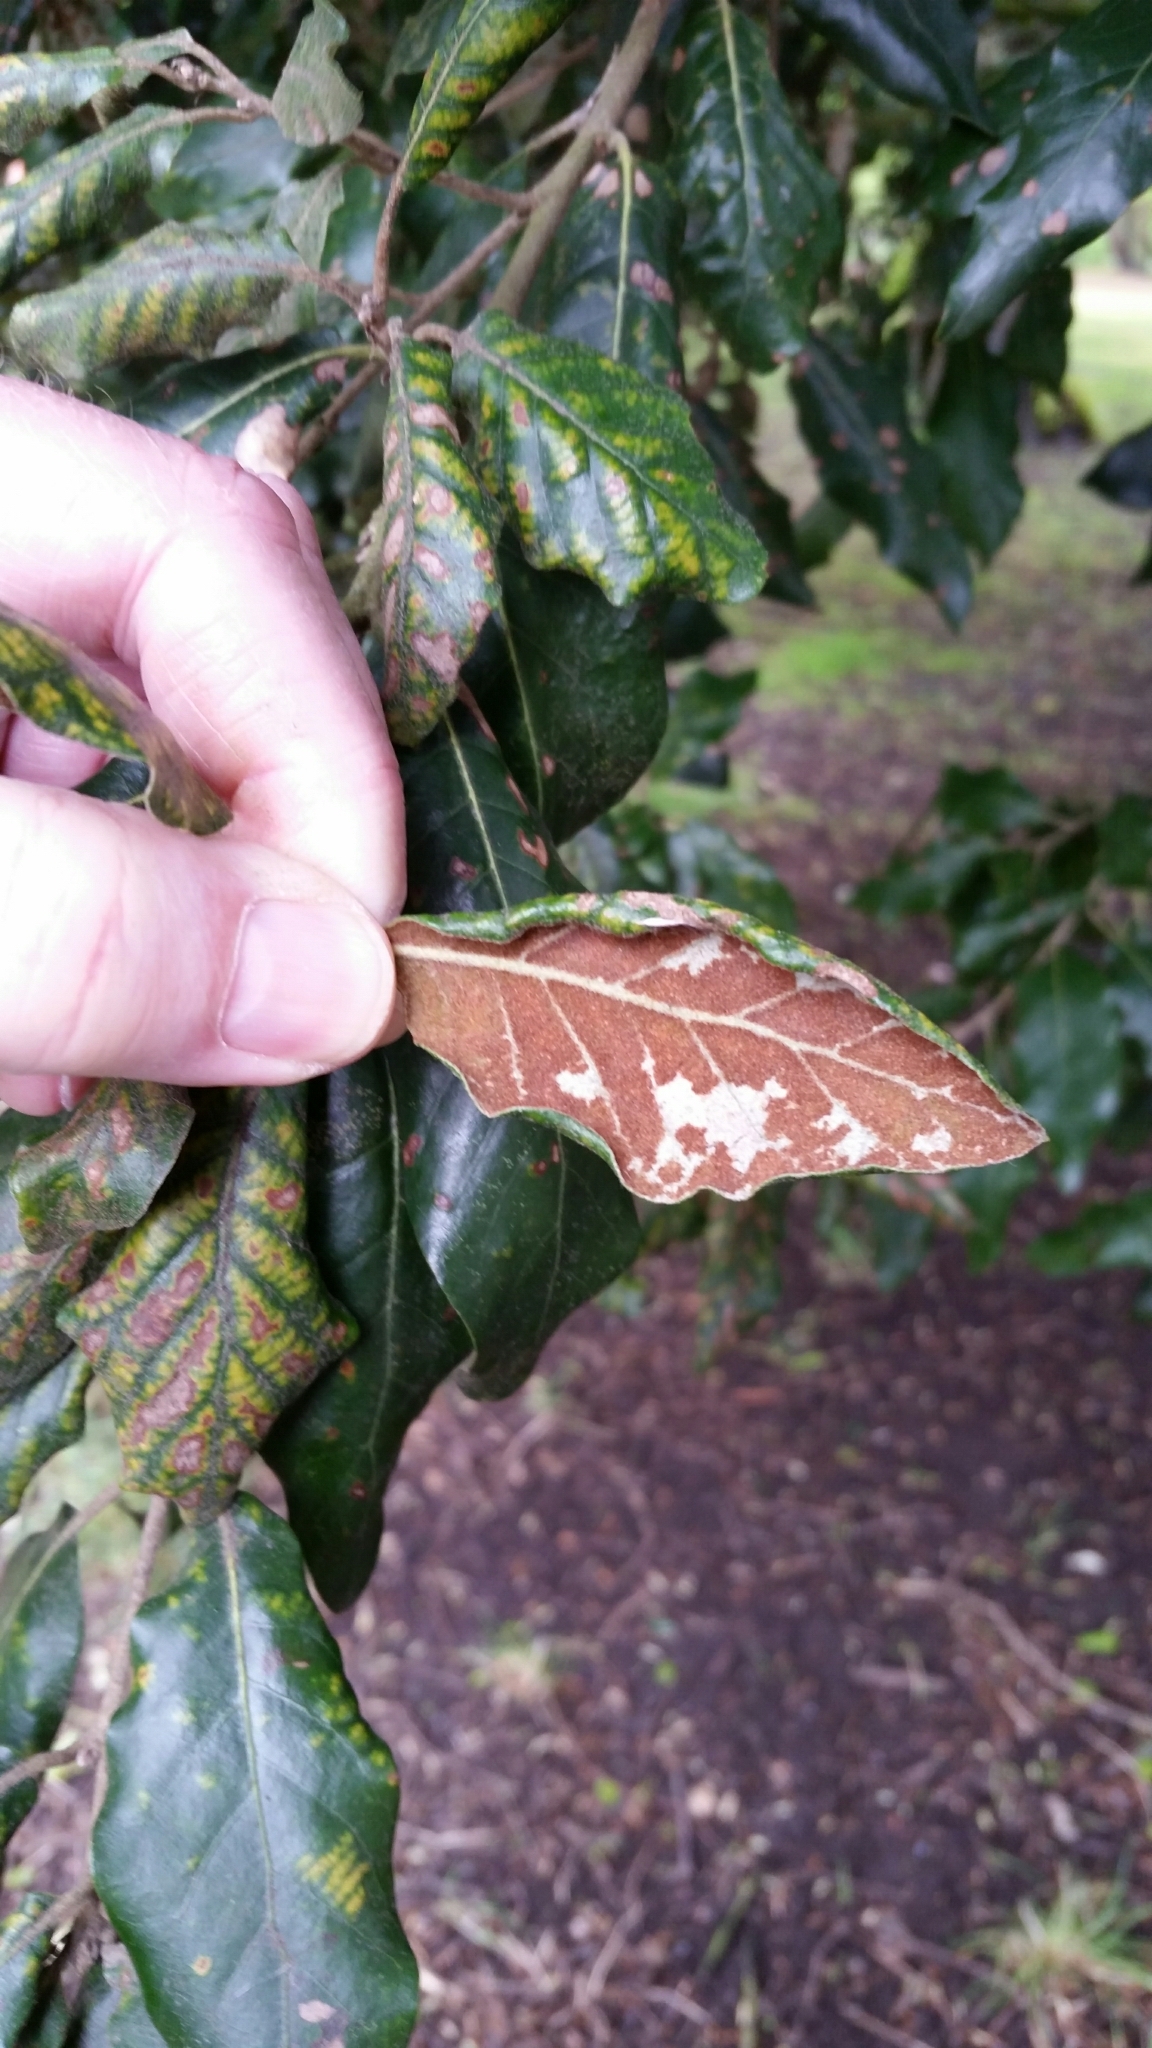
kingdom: Animalia
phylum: Arthropoda
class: Arachnida
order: Trombidiformes
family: Eriophyidae
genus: Aceria
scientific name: Aceria ilicis
